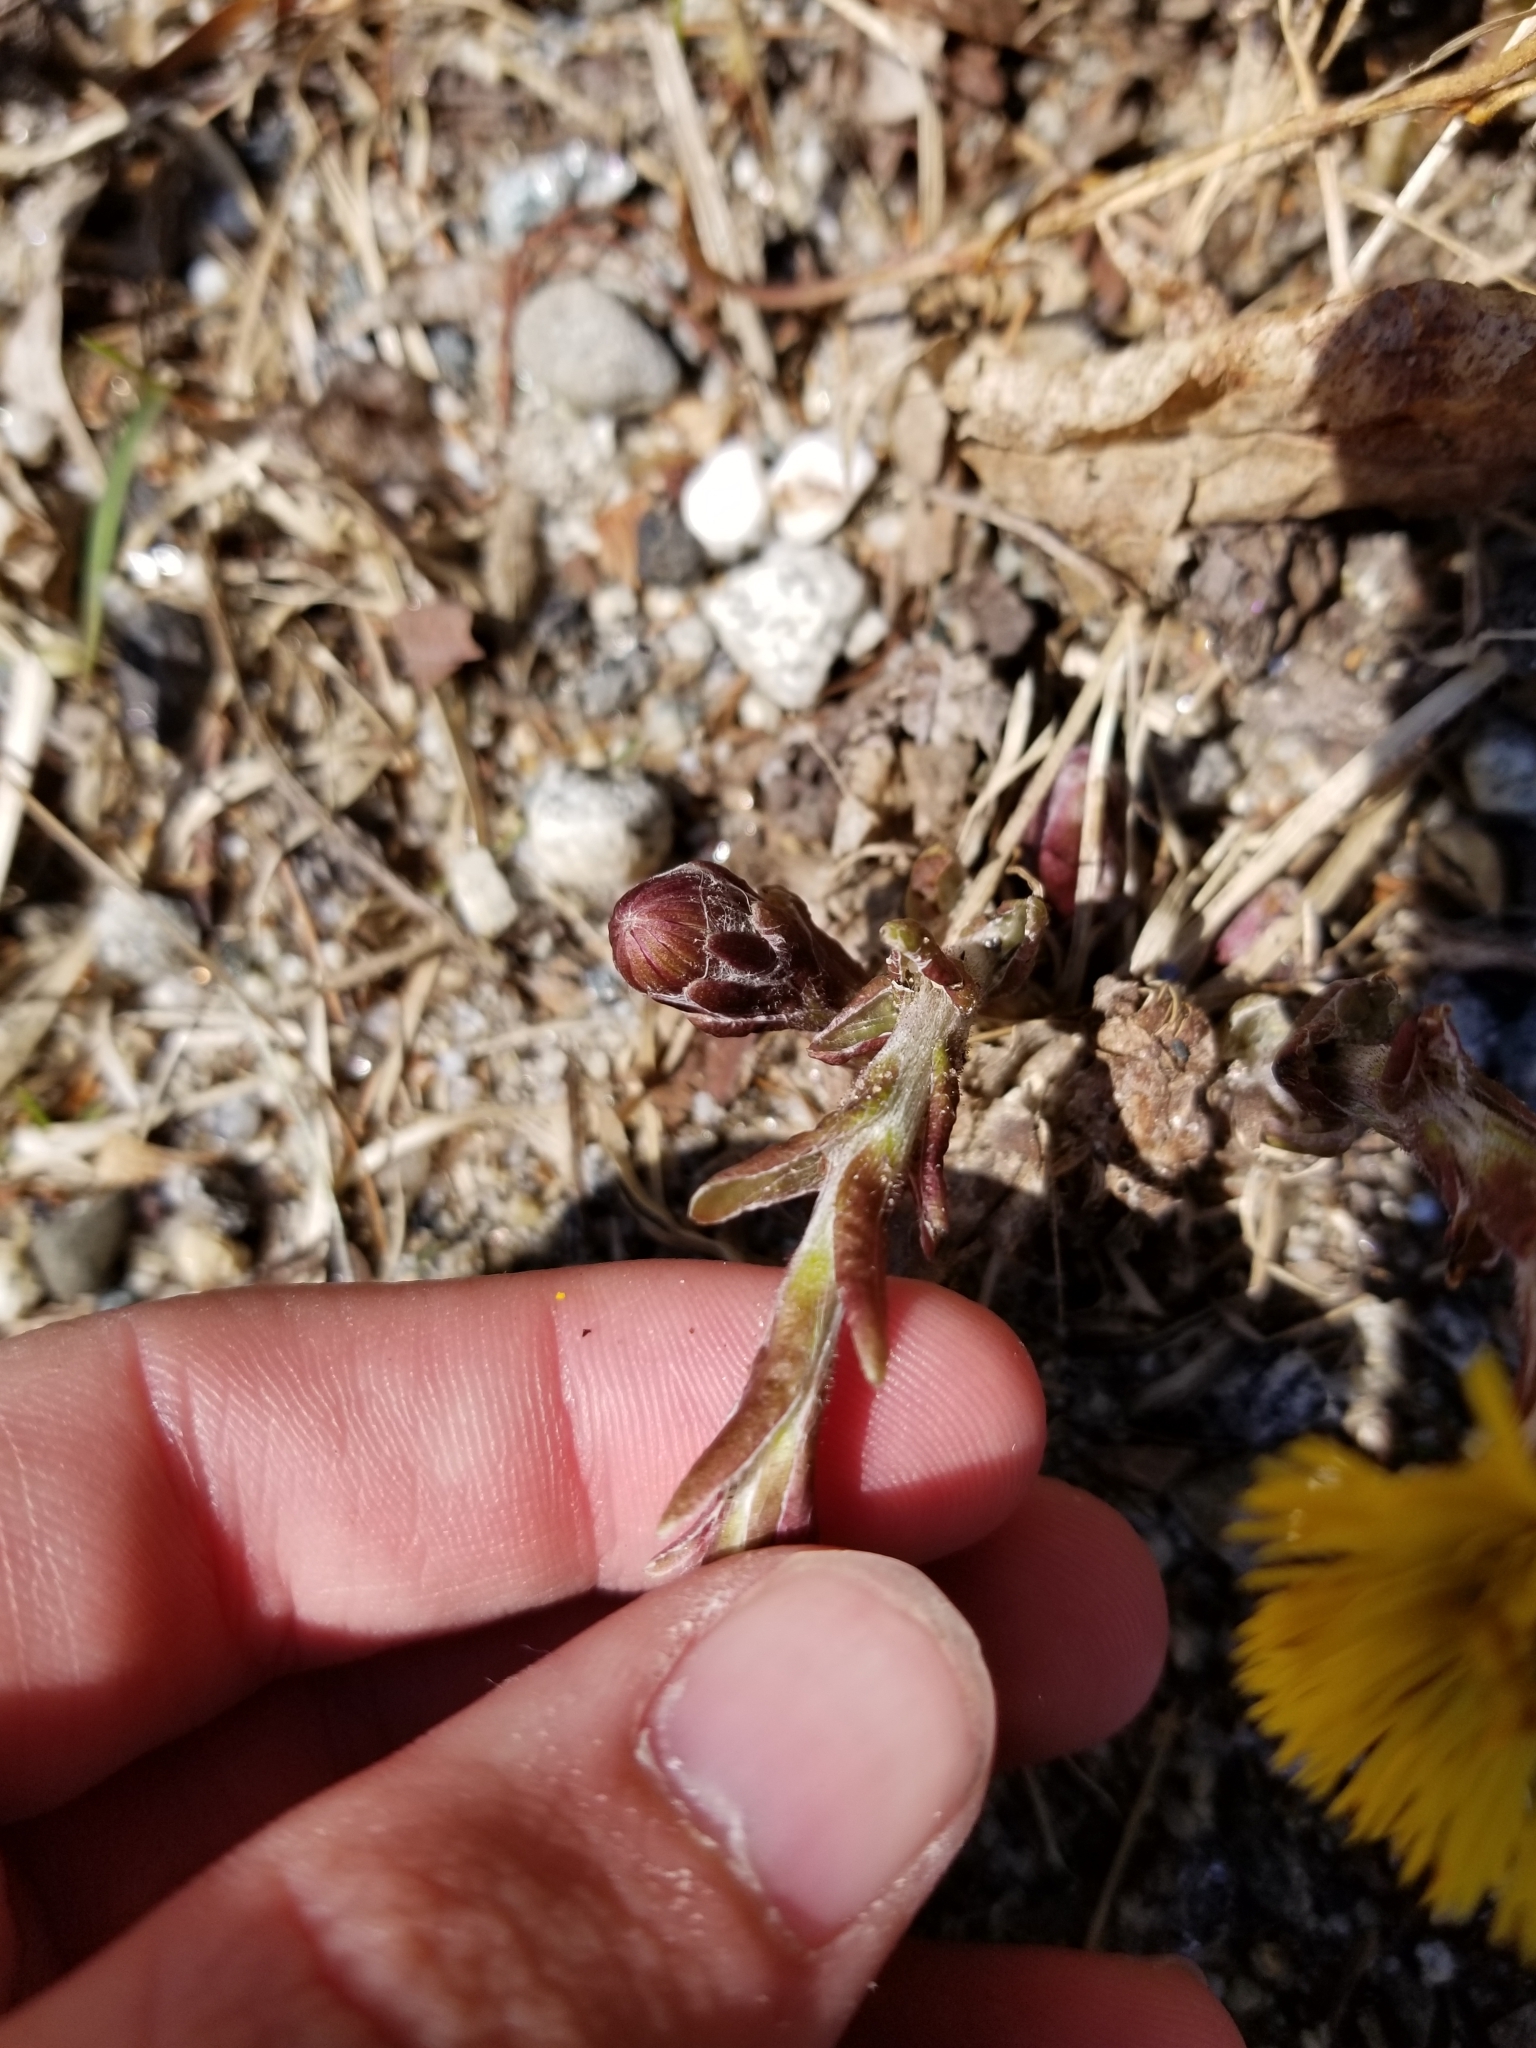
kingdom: Plantae
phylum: Tracheophyta
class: Magnoliopsida
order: Asterales
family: Asteraceae
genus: Tussilago
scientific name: Tussilago farfara
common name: Coltsfoot
